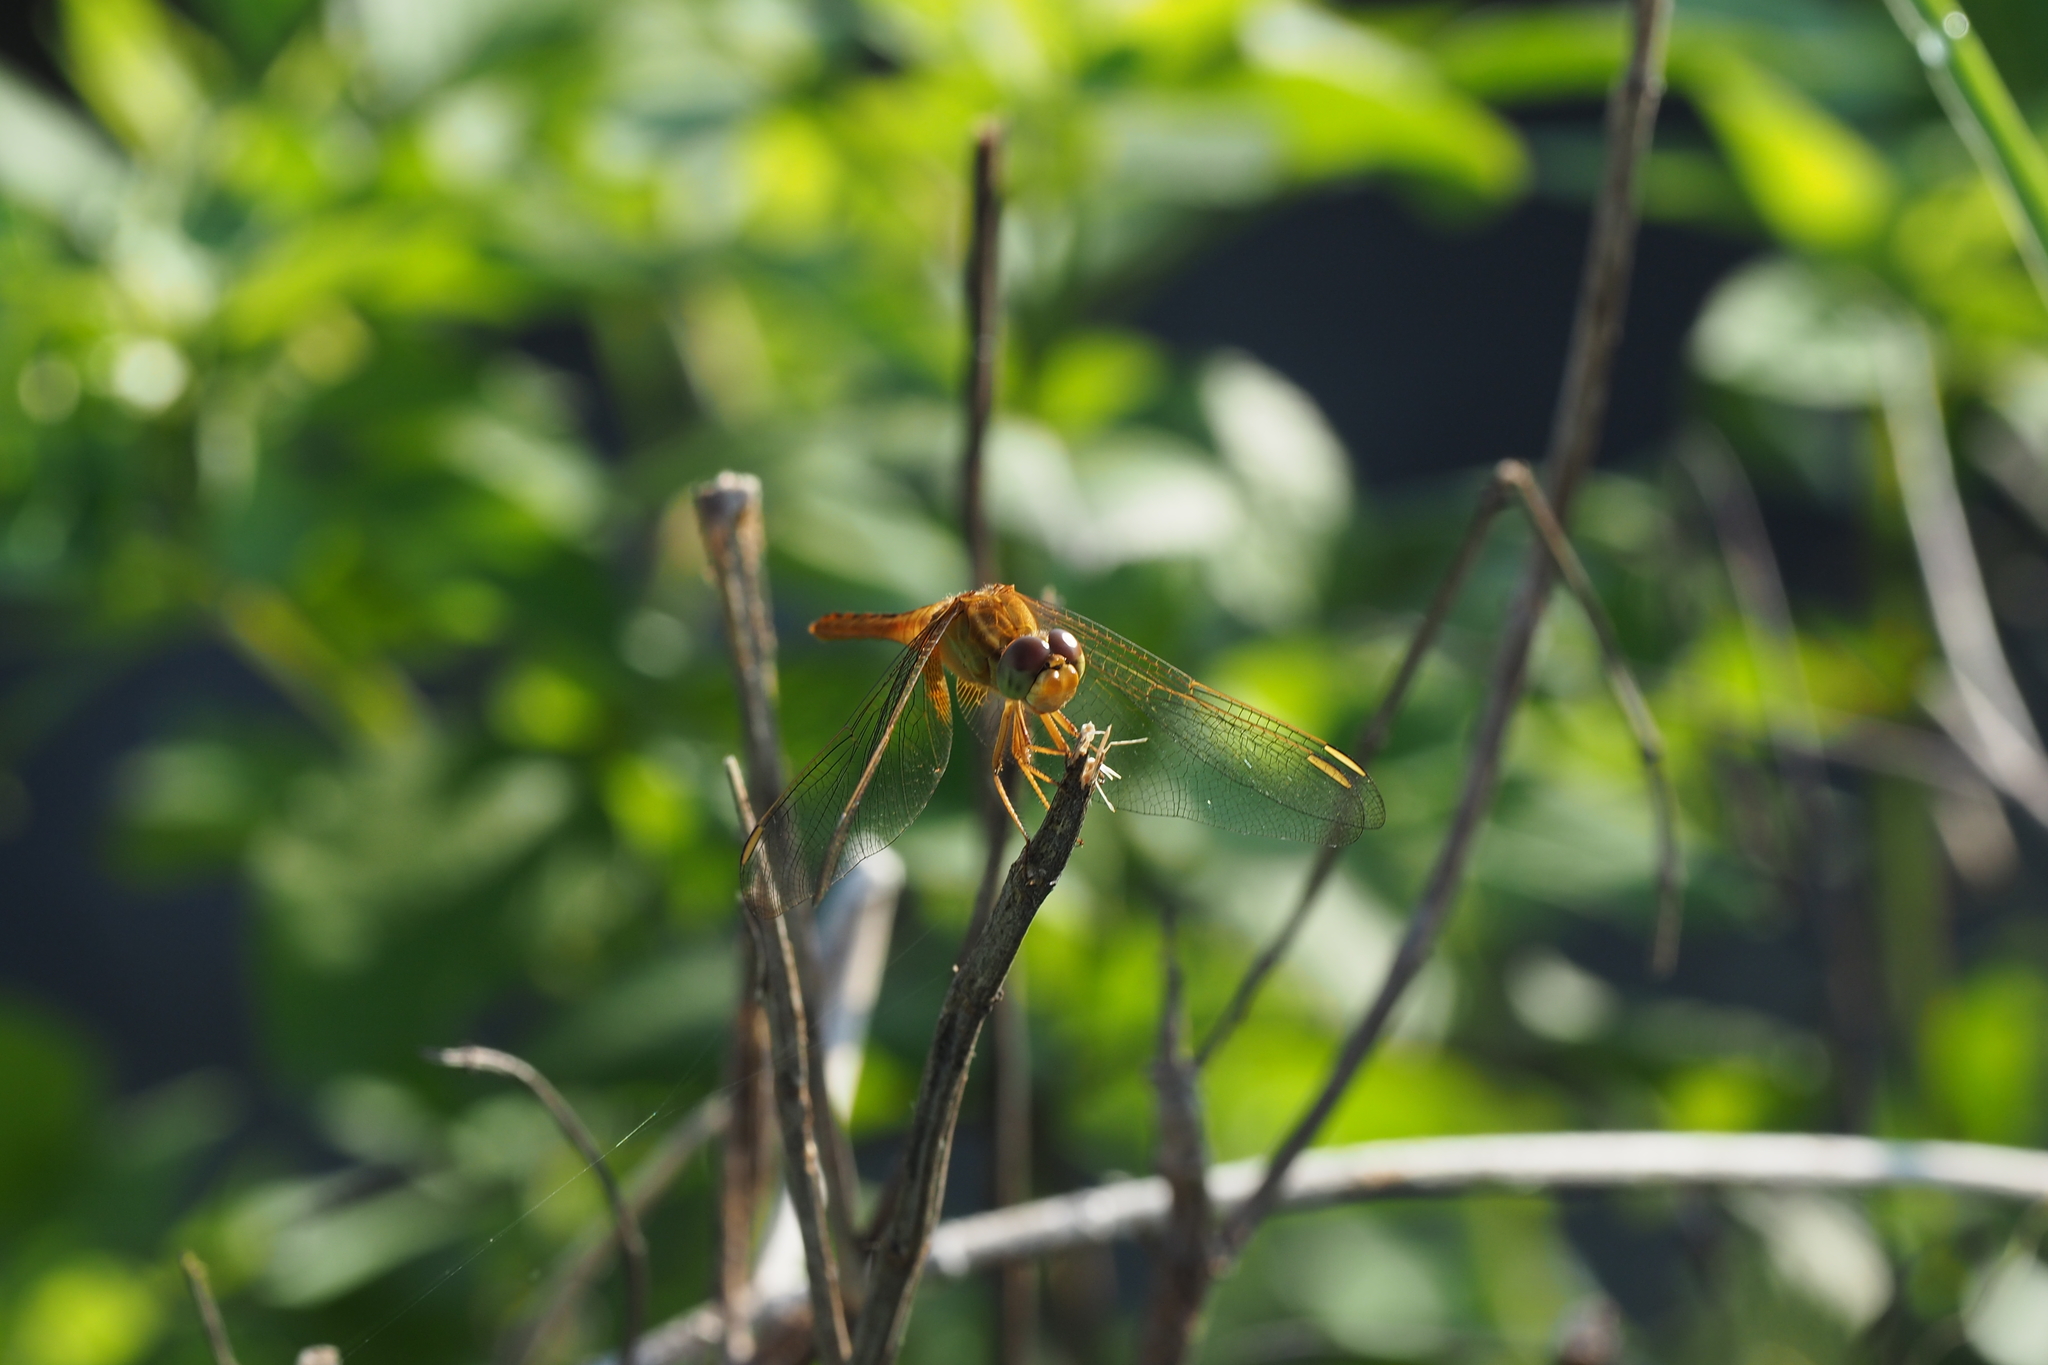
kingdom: Animalia
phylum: Arthropoda
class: Insecta
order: Odonata
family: Libellulidae
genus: Crocothemis
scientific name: Crocothemis servilia
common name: Scarlet skimmer
